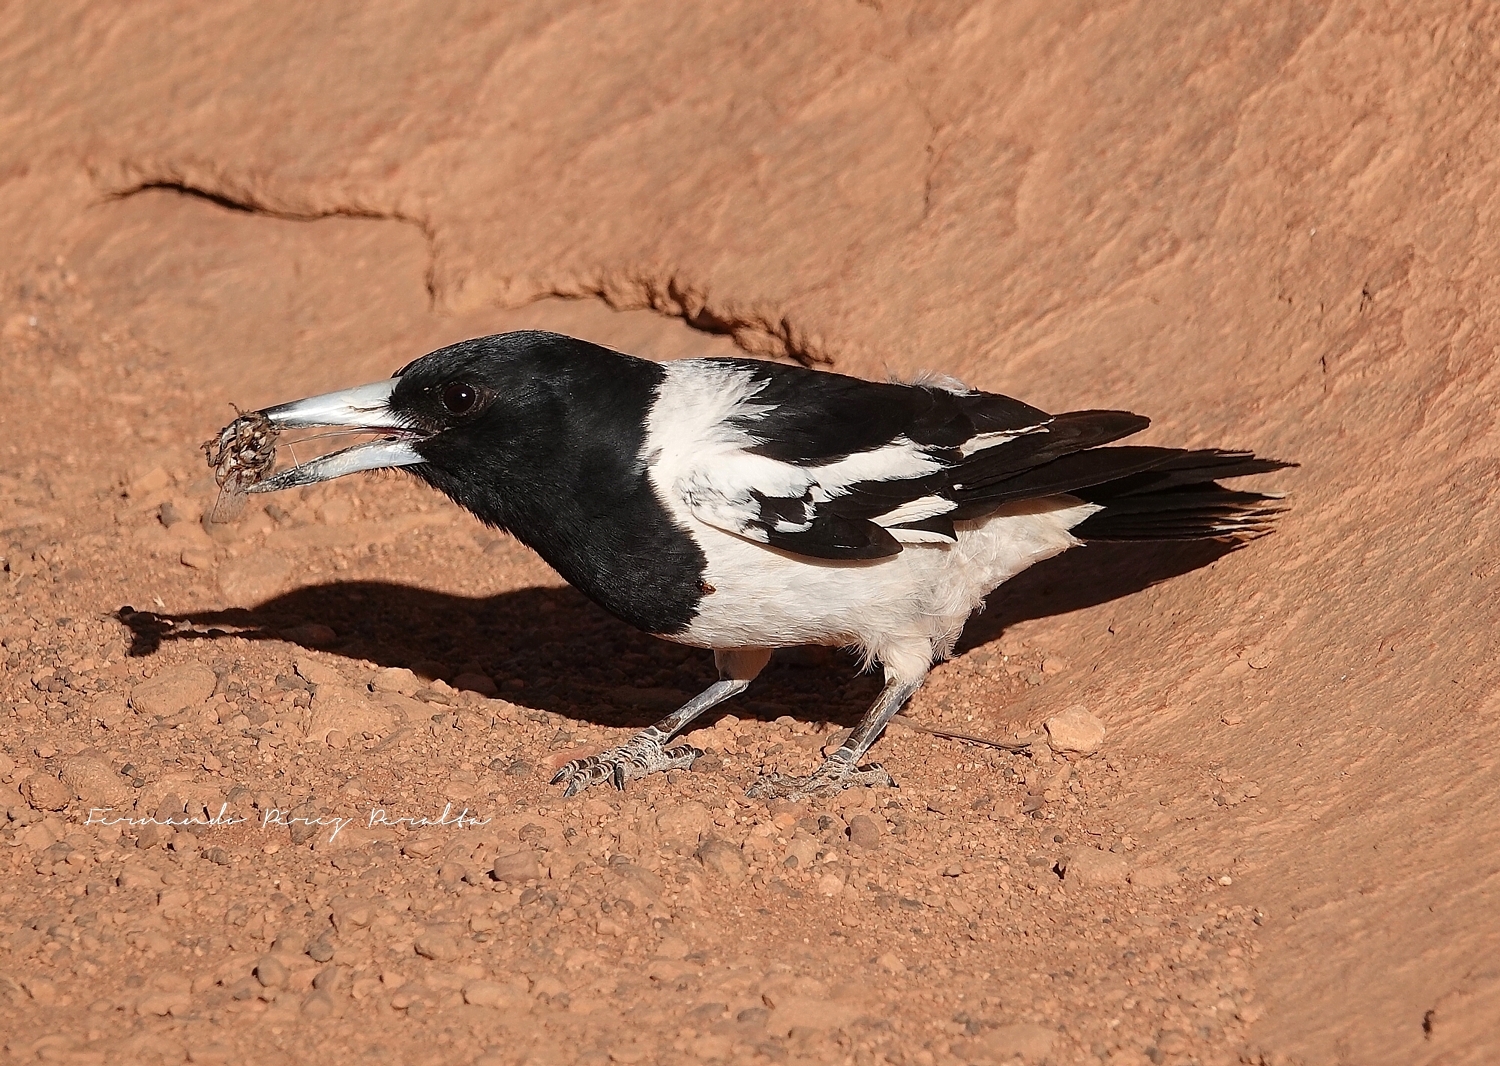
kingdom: Animalia
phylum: Chordata
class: Aves
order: Passeriformes
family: Cracticidae
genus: Cracticus
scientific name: Cracticus nigrogularis
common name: Pied butcherbird
